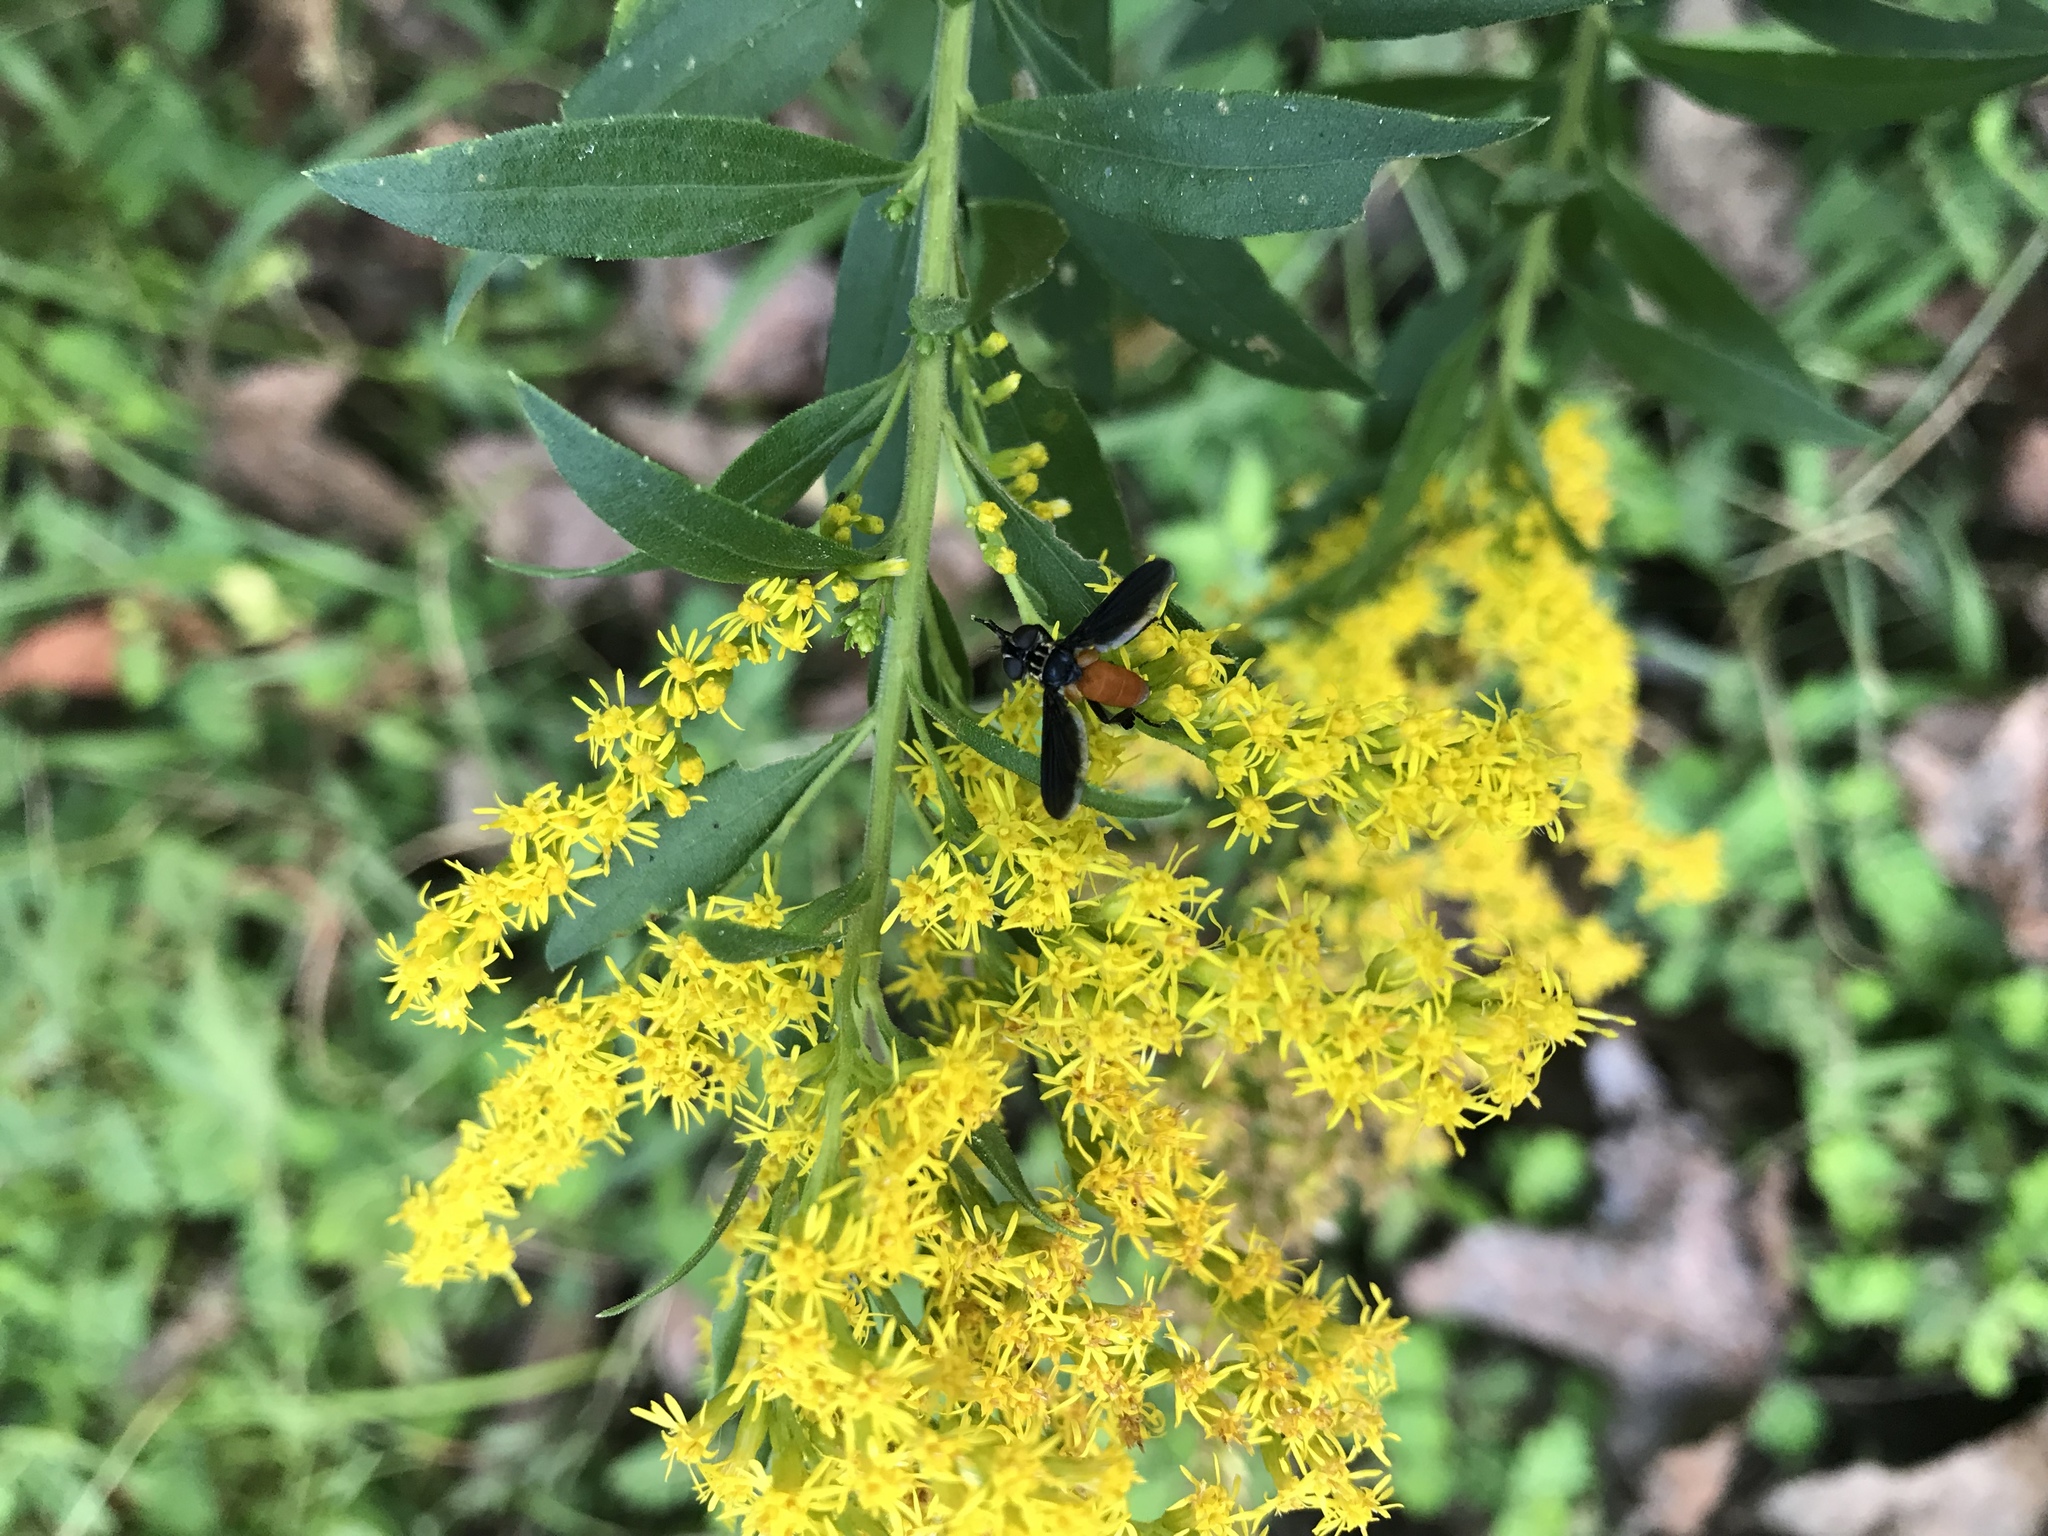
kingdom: Animalia
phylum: Arthropoda
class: Insecta
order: Diptera
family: Tachinidae
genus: Trichopoda
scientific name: Trichopoda pennipes
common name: Tachinid fly
